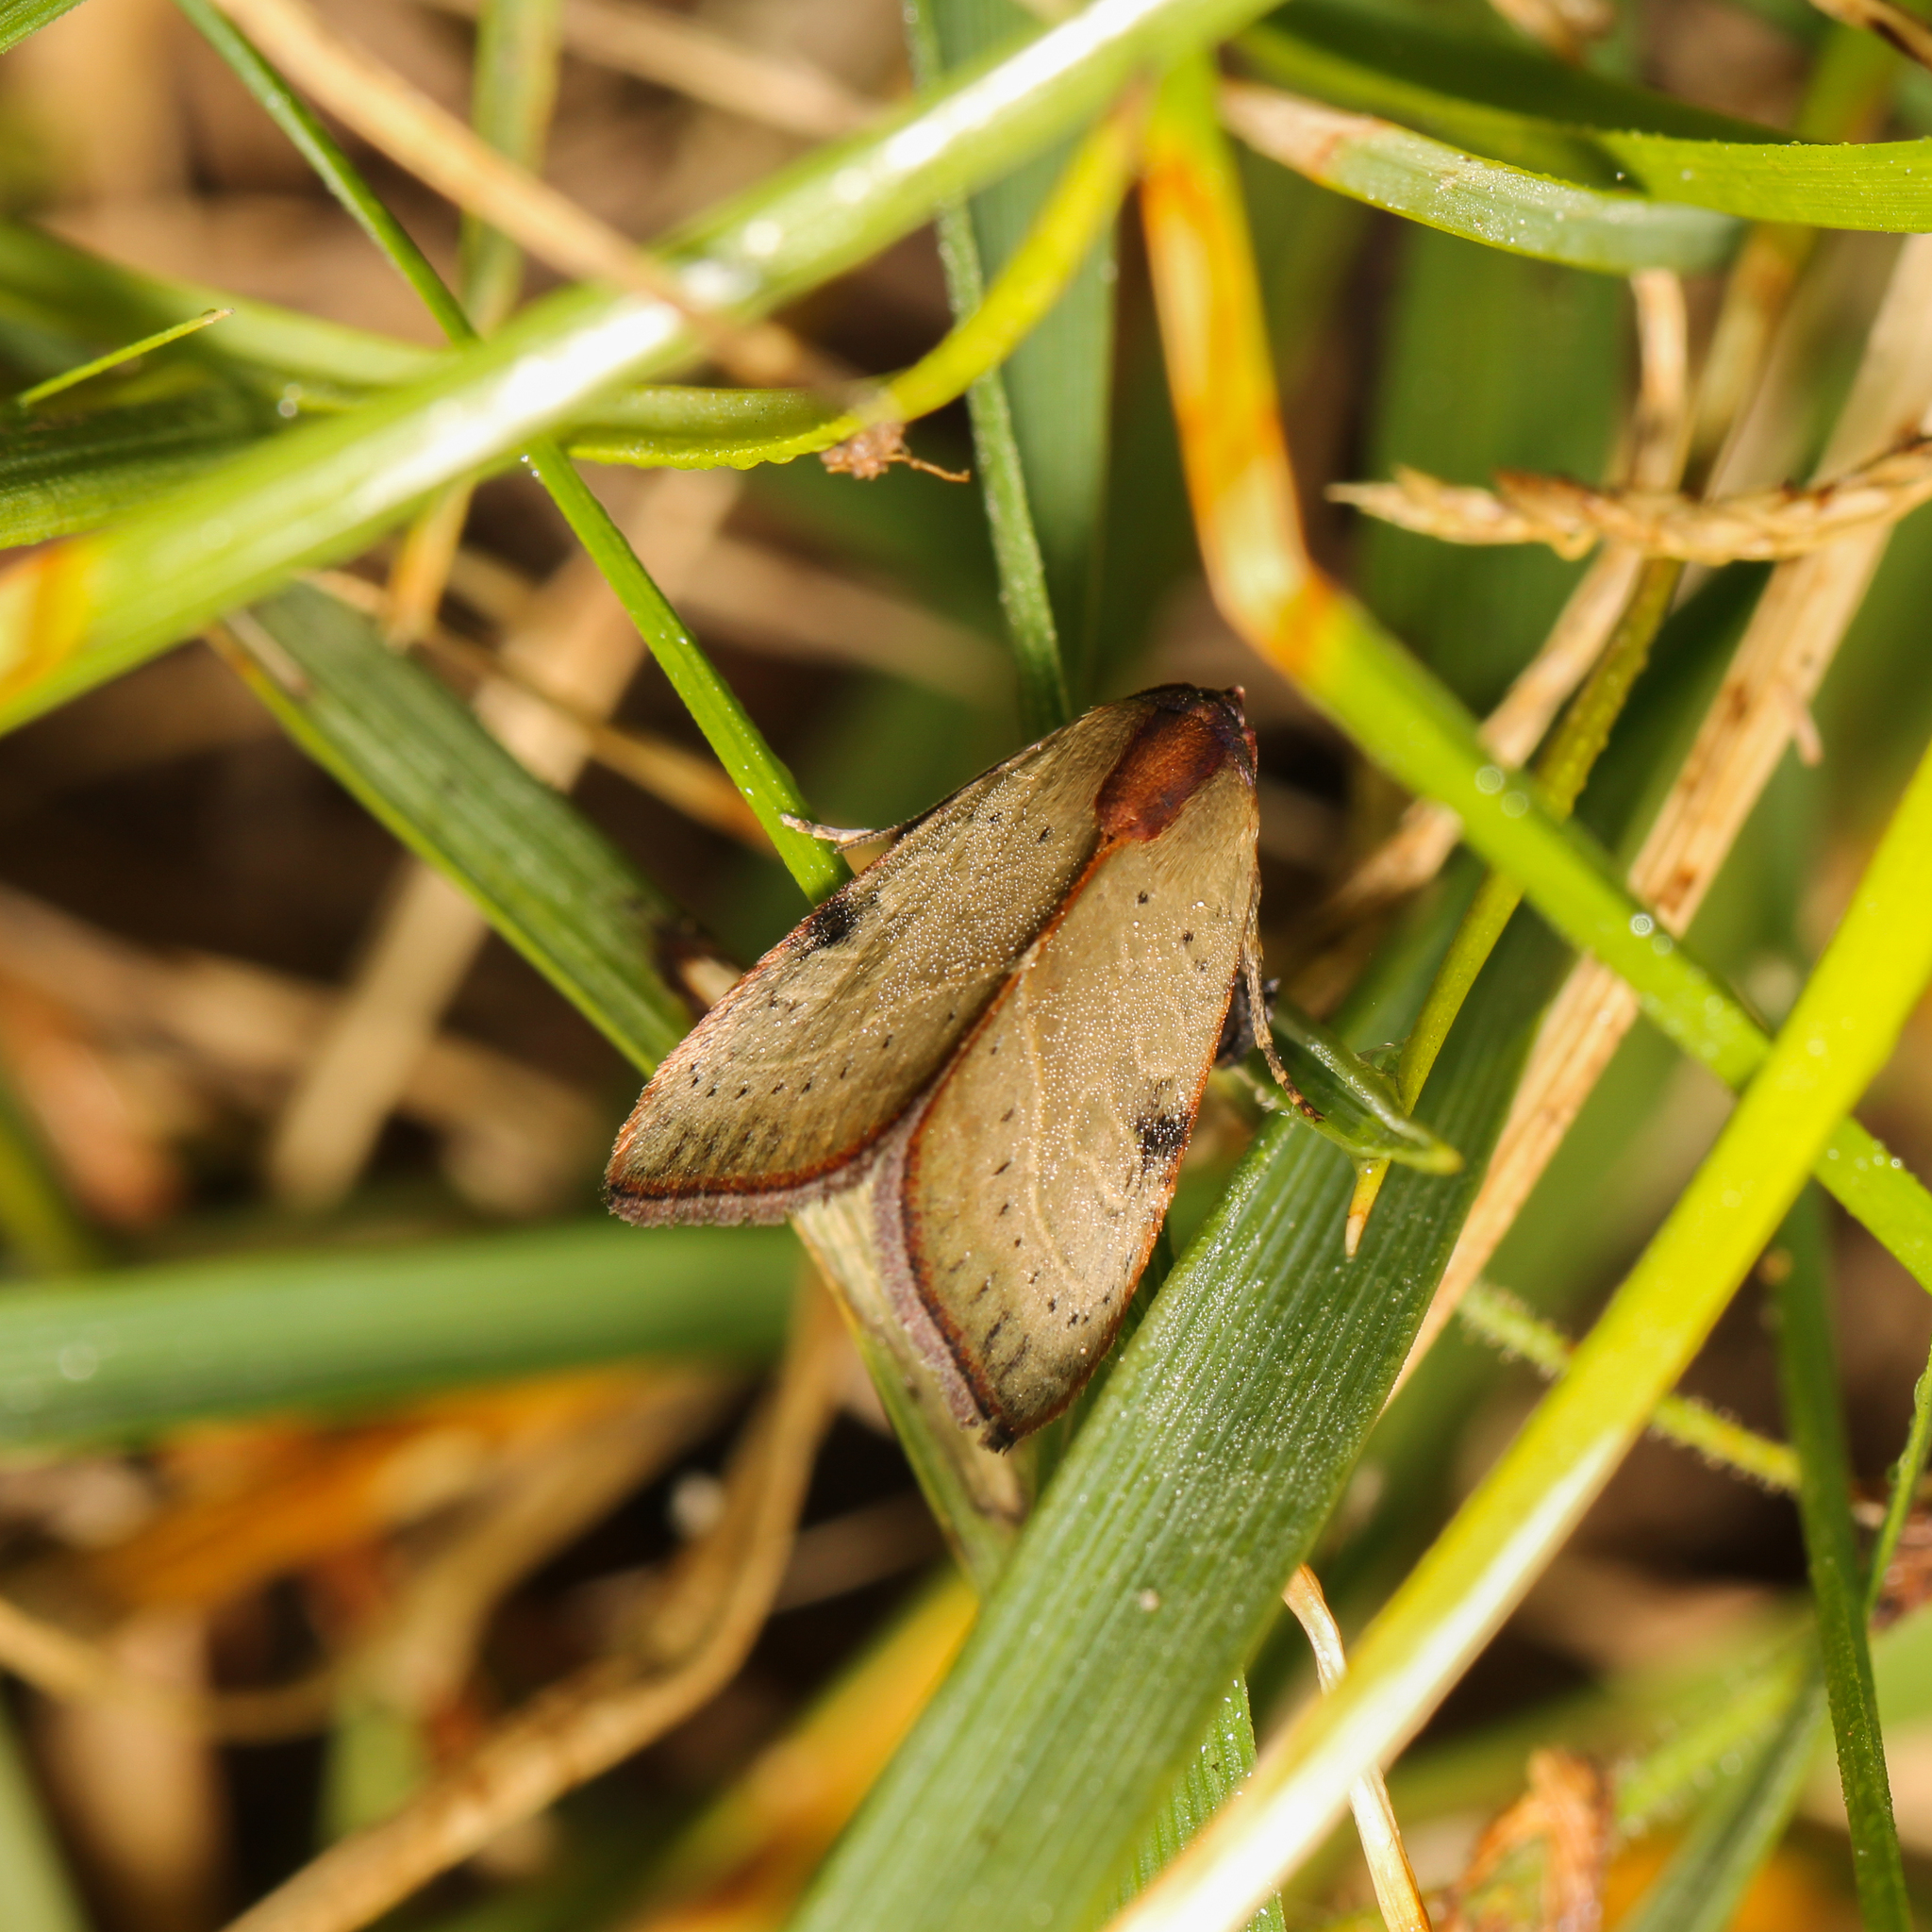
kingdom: Animalia
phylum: Arthropoda
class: Insecta
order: Lepidoptera
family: Noctuidae
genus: Galgula
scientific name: Galgula partita
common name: Wedgeling
